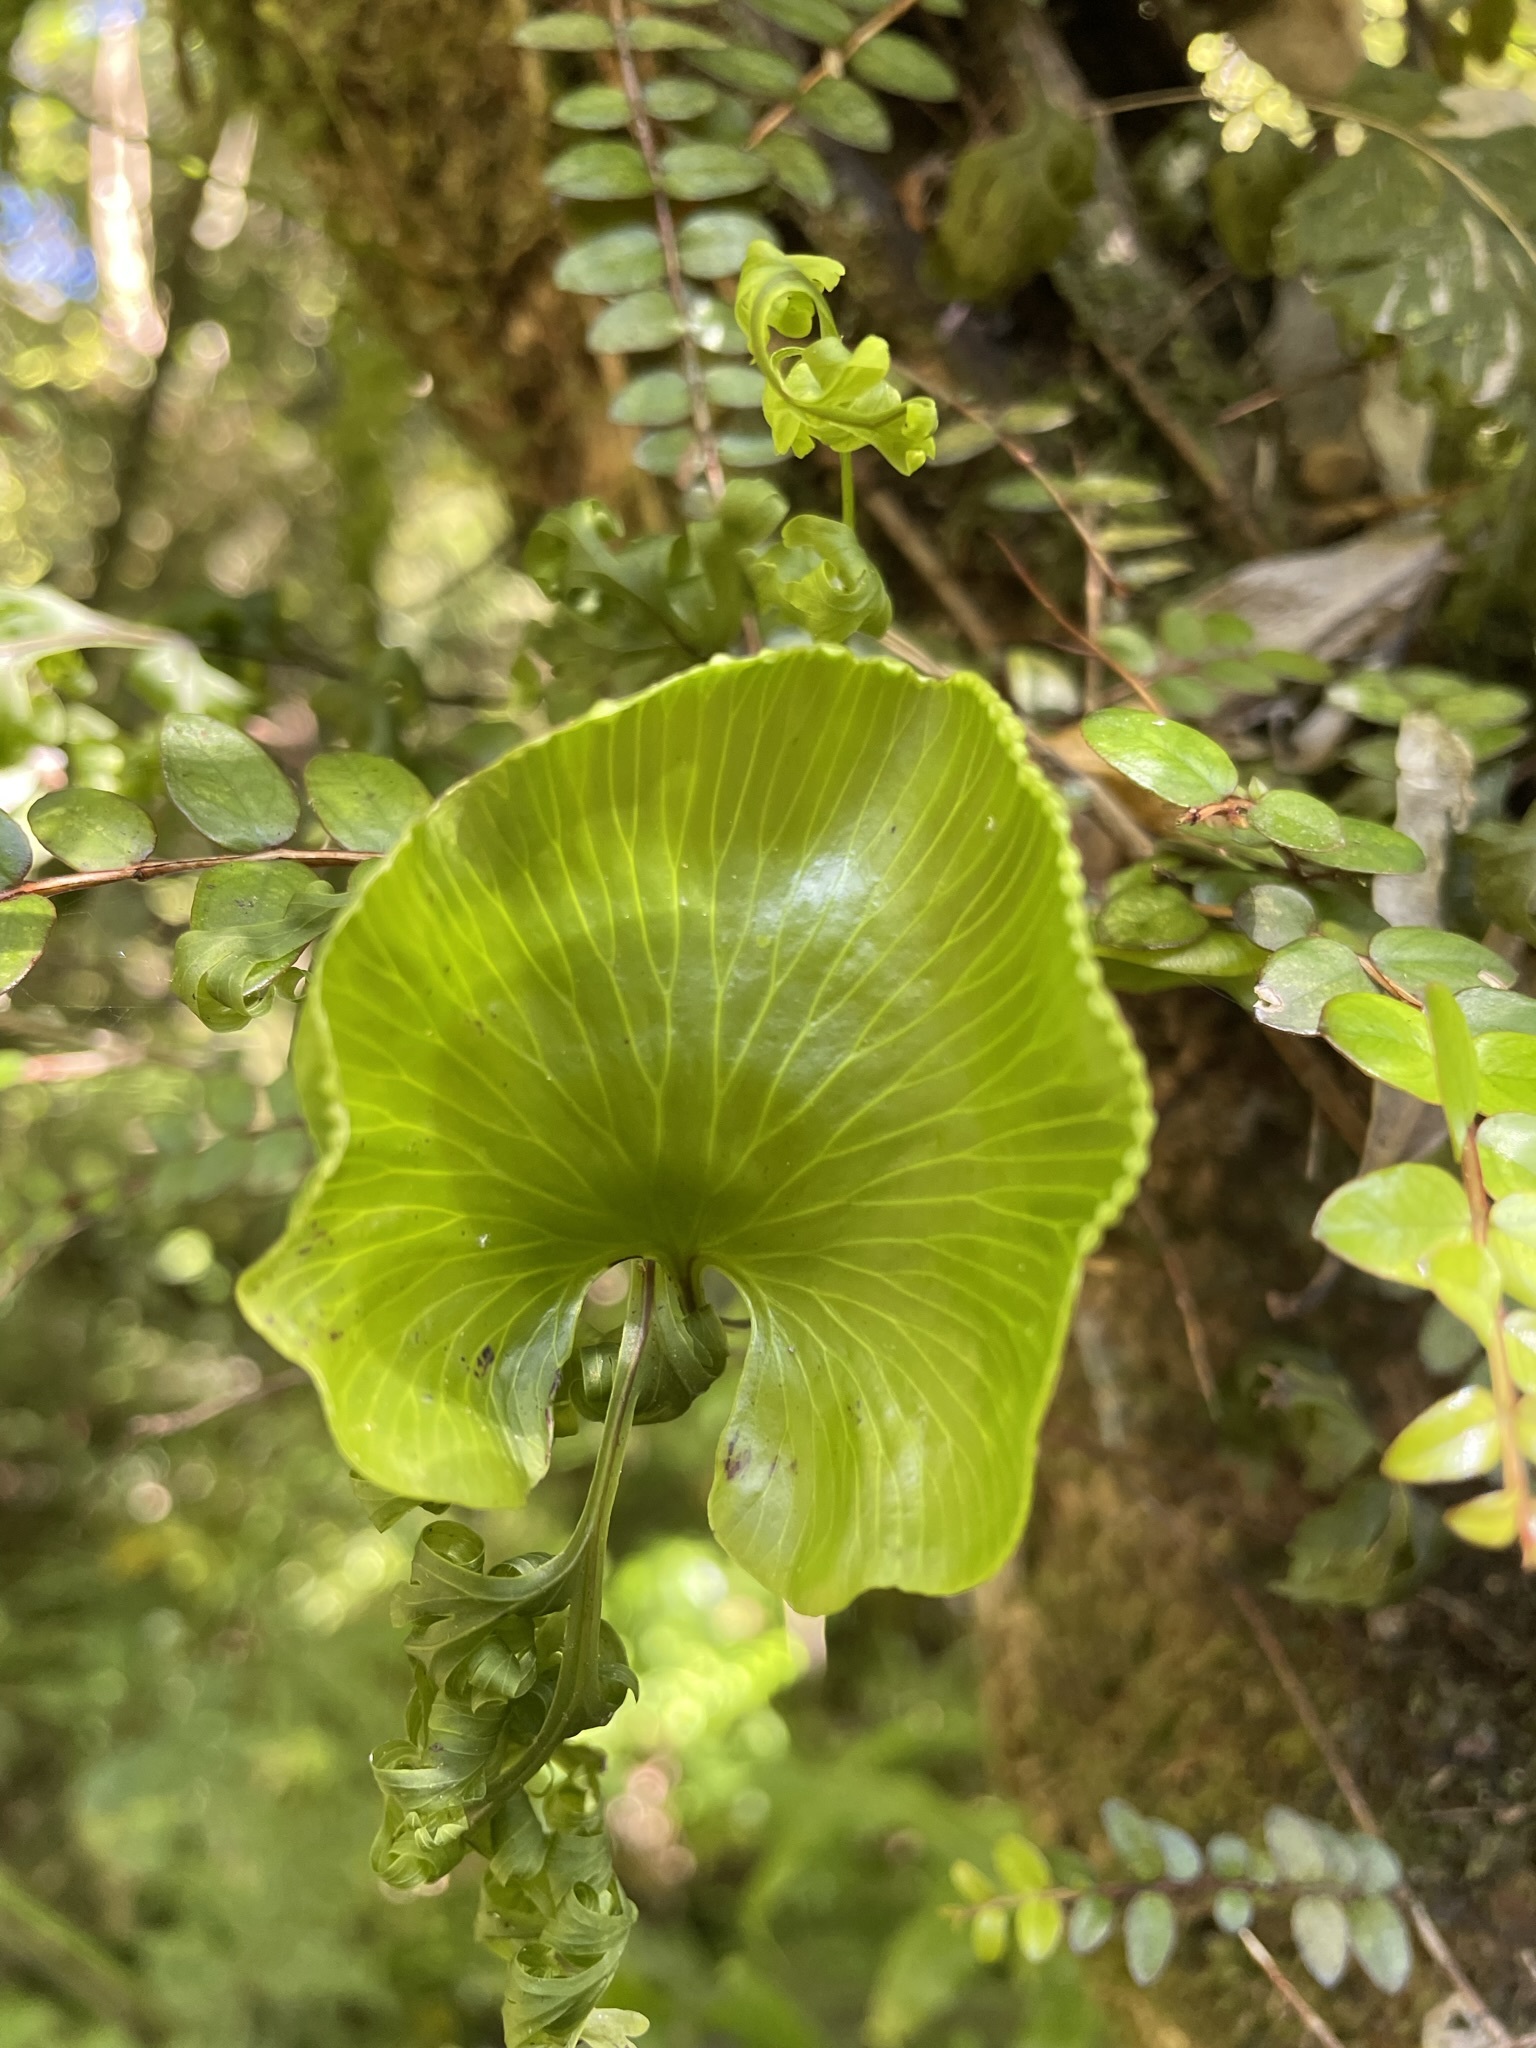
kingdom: Plantae
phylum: Tracheophyta
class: Polypodiopsida
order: Hymenophyllales
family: Hymenophyllaceae
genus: Hymenophyllum
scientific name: Hymenophyllum nephrophyllum
